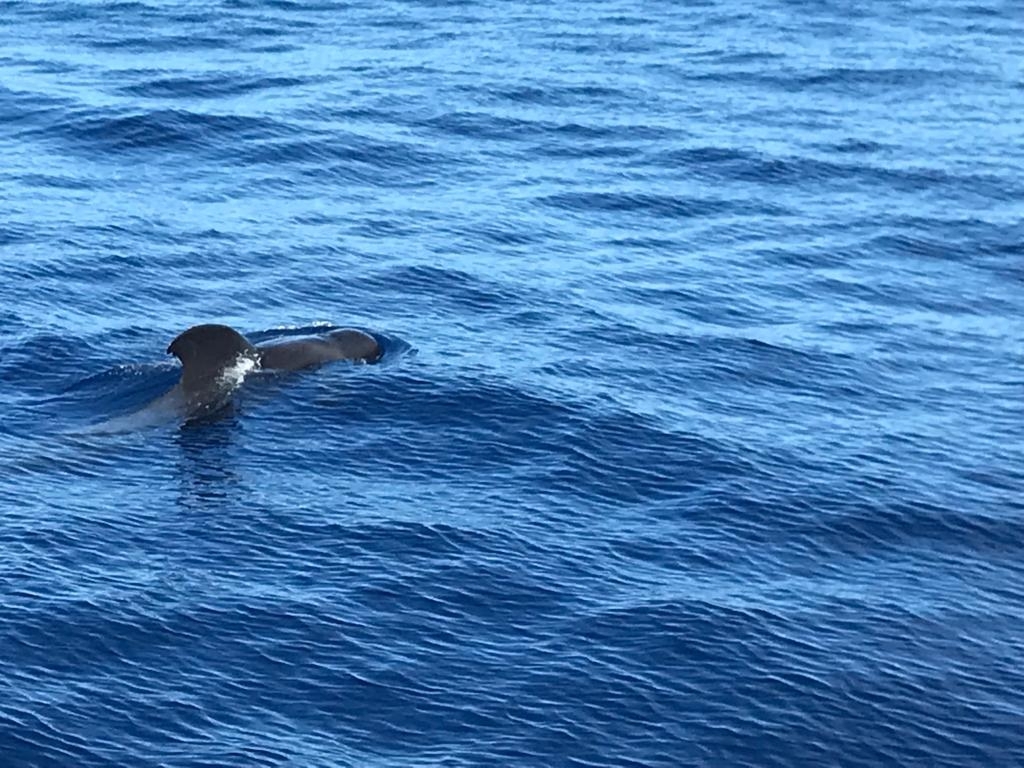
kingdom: Animalia
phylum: Chordata
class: Mammalia
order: Cetacea
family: Delphinidae
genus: Globicephala
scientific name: Globicephala macrorhynchus
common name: Short-finned pilot whale
